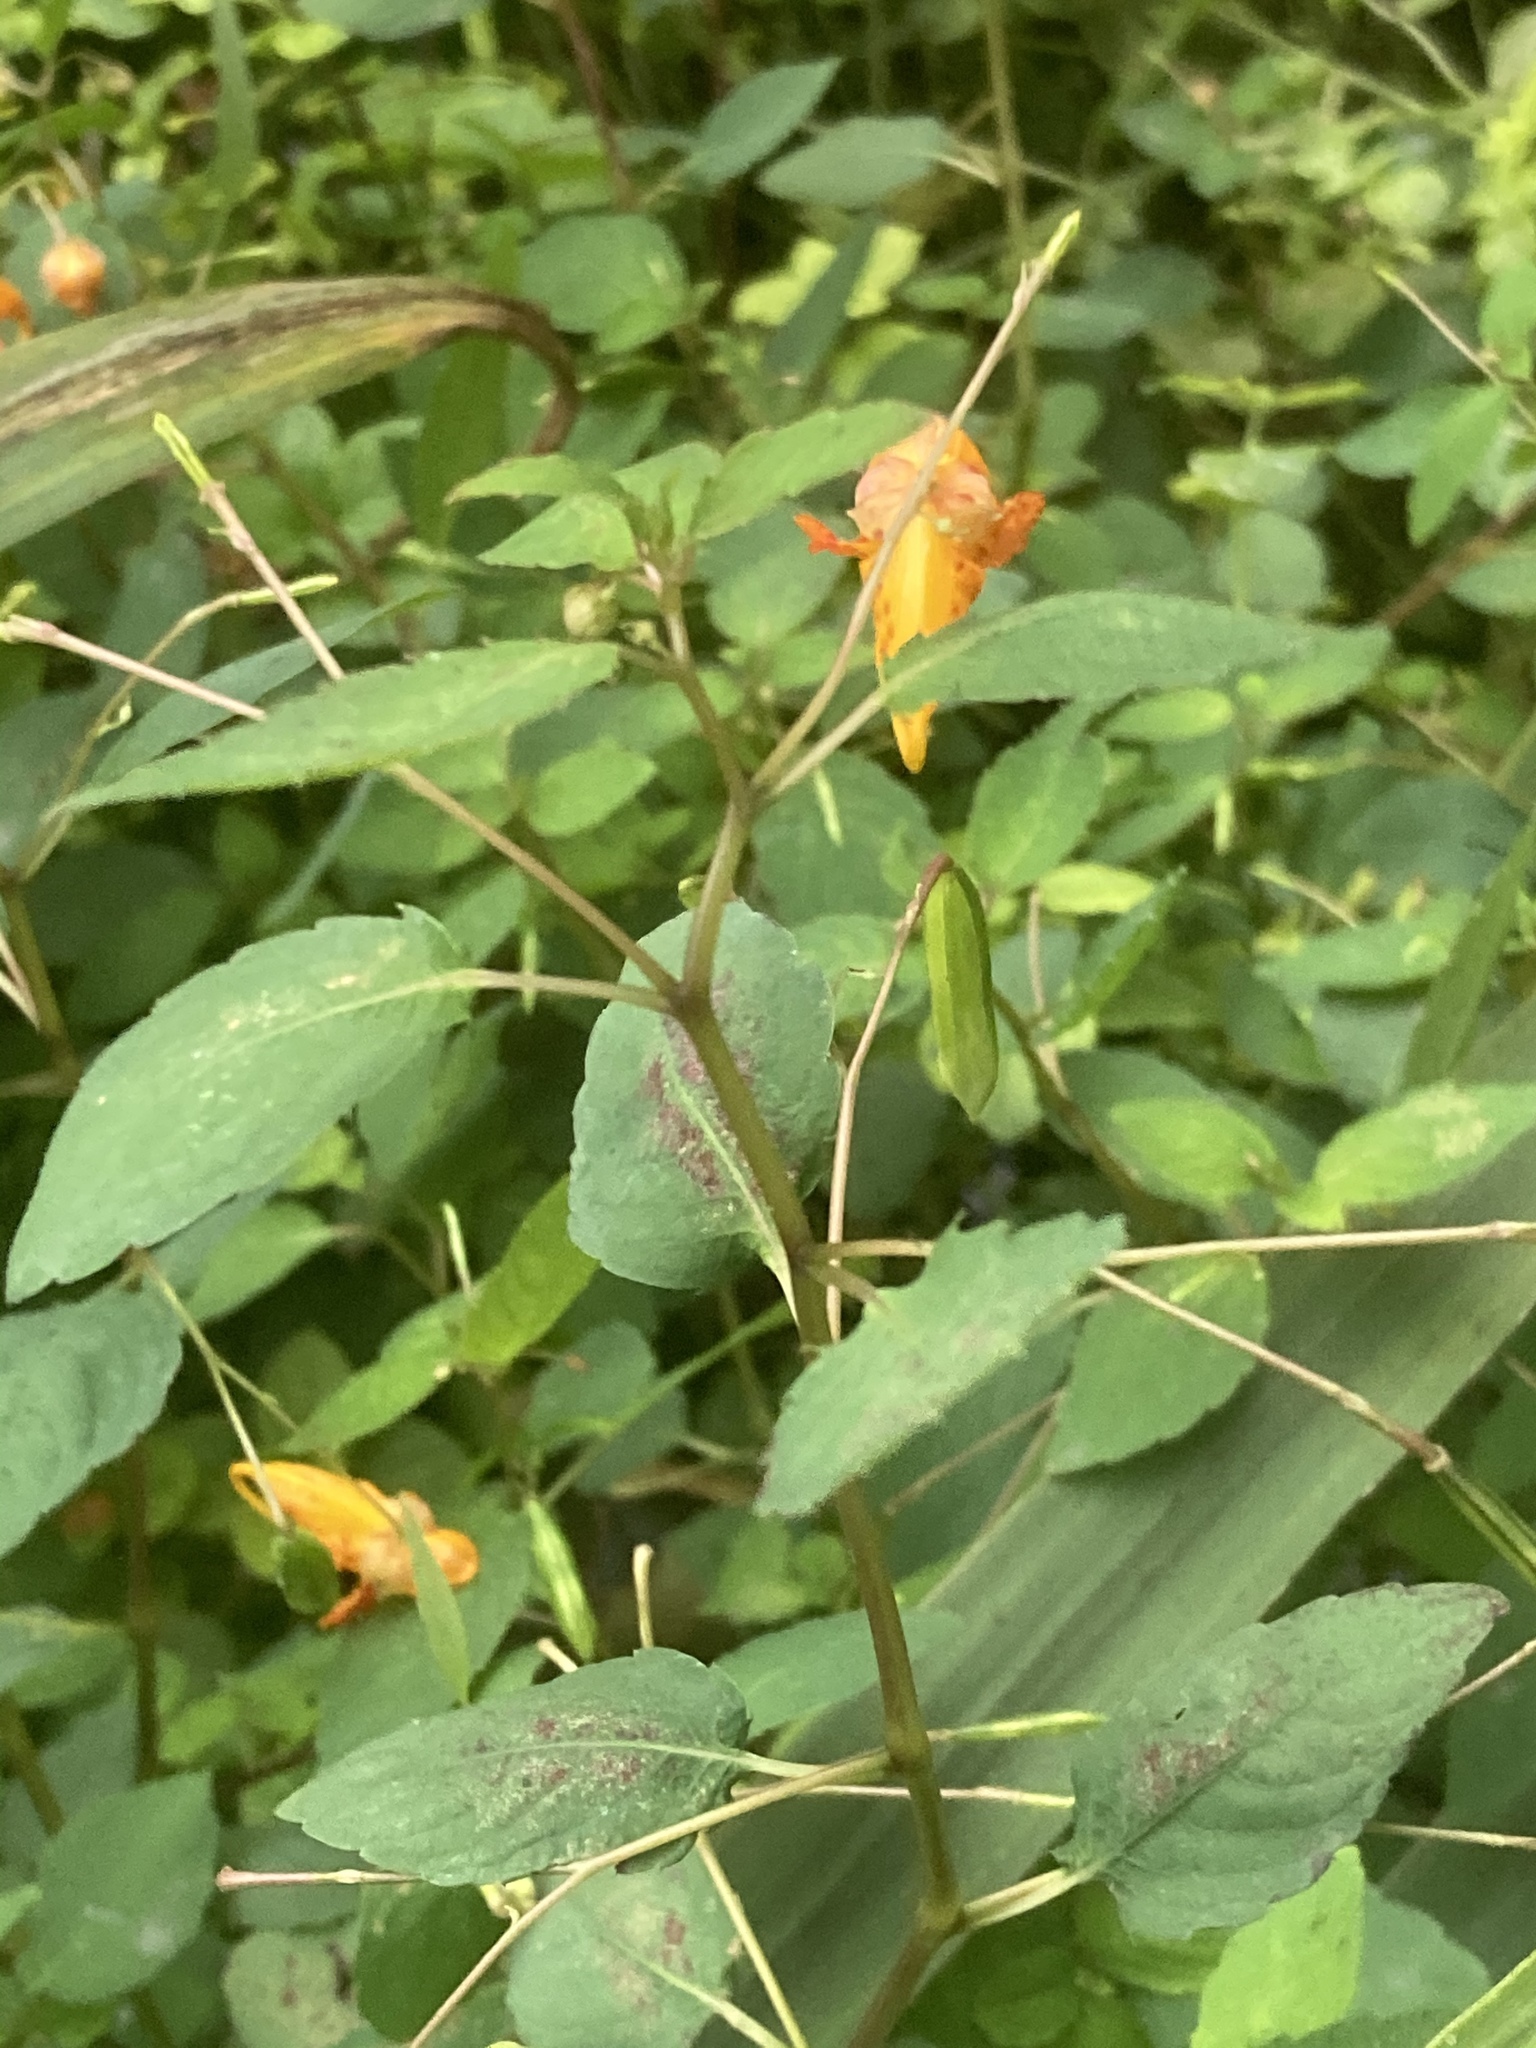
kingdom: Plantae
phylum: Tracheophyta
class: Magnoliopsida
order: Ericales
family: Balsaminaceae
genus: Impatiens
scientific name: Impatiens capensis
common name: Orange balsam
